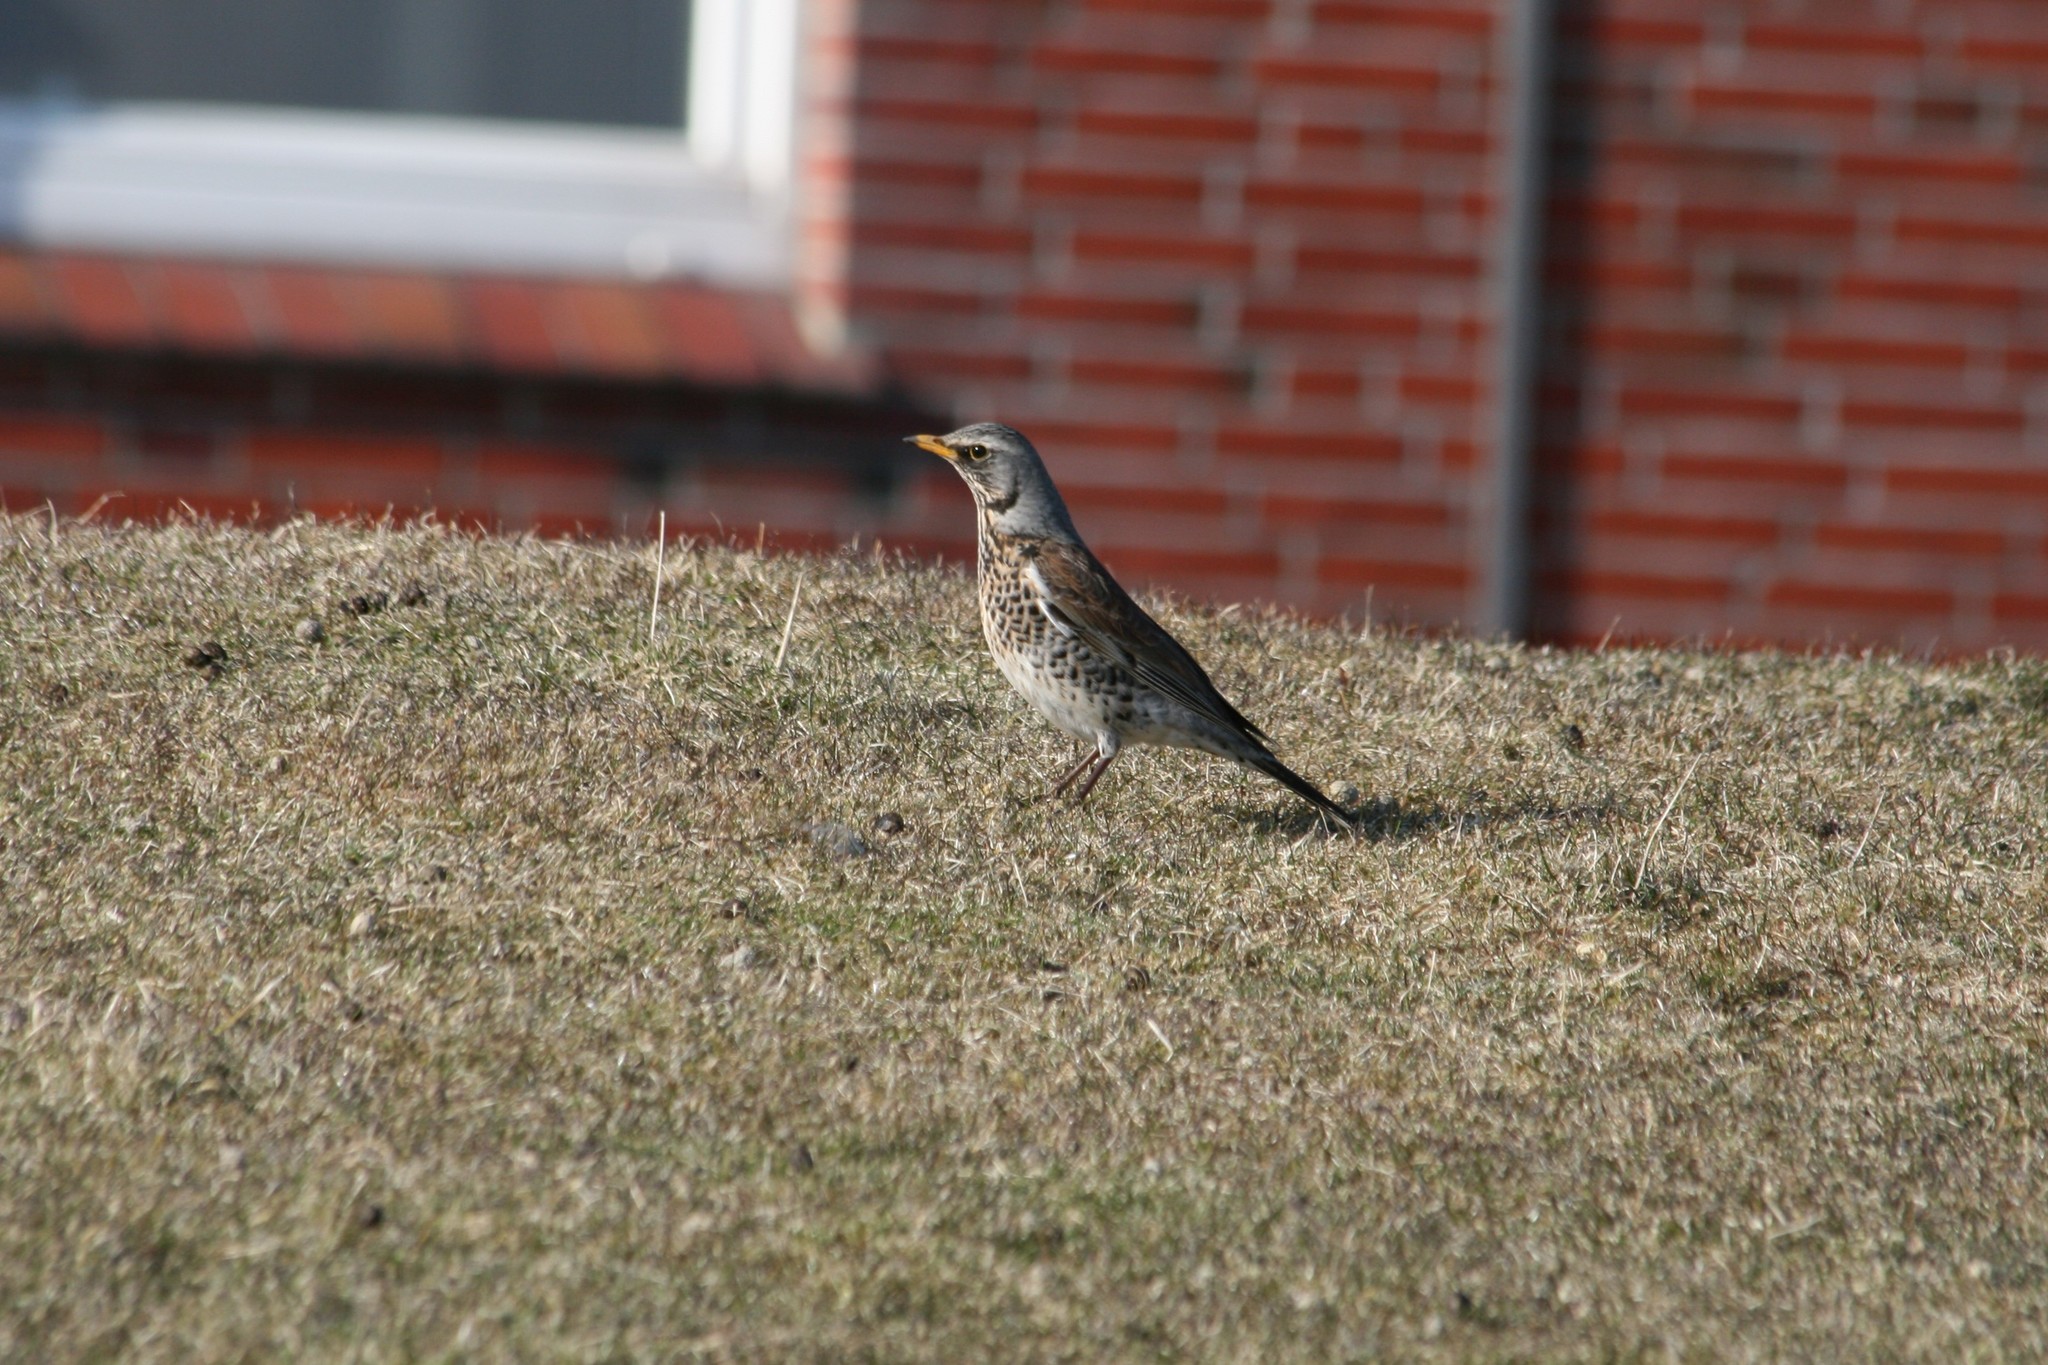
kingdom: Animalia
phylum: Chordata
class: Aves
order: Passeriformes
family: Turdidae
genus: Turdus
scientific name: Turdus pilaris
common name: Fieldfare
